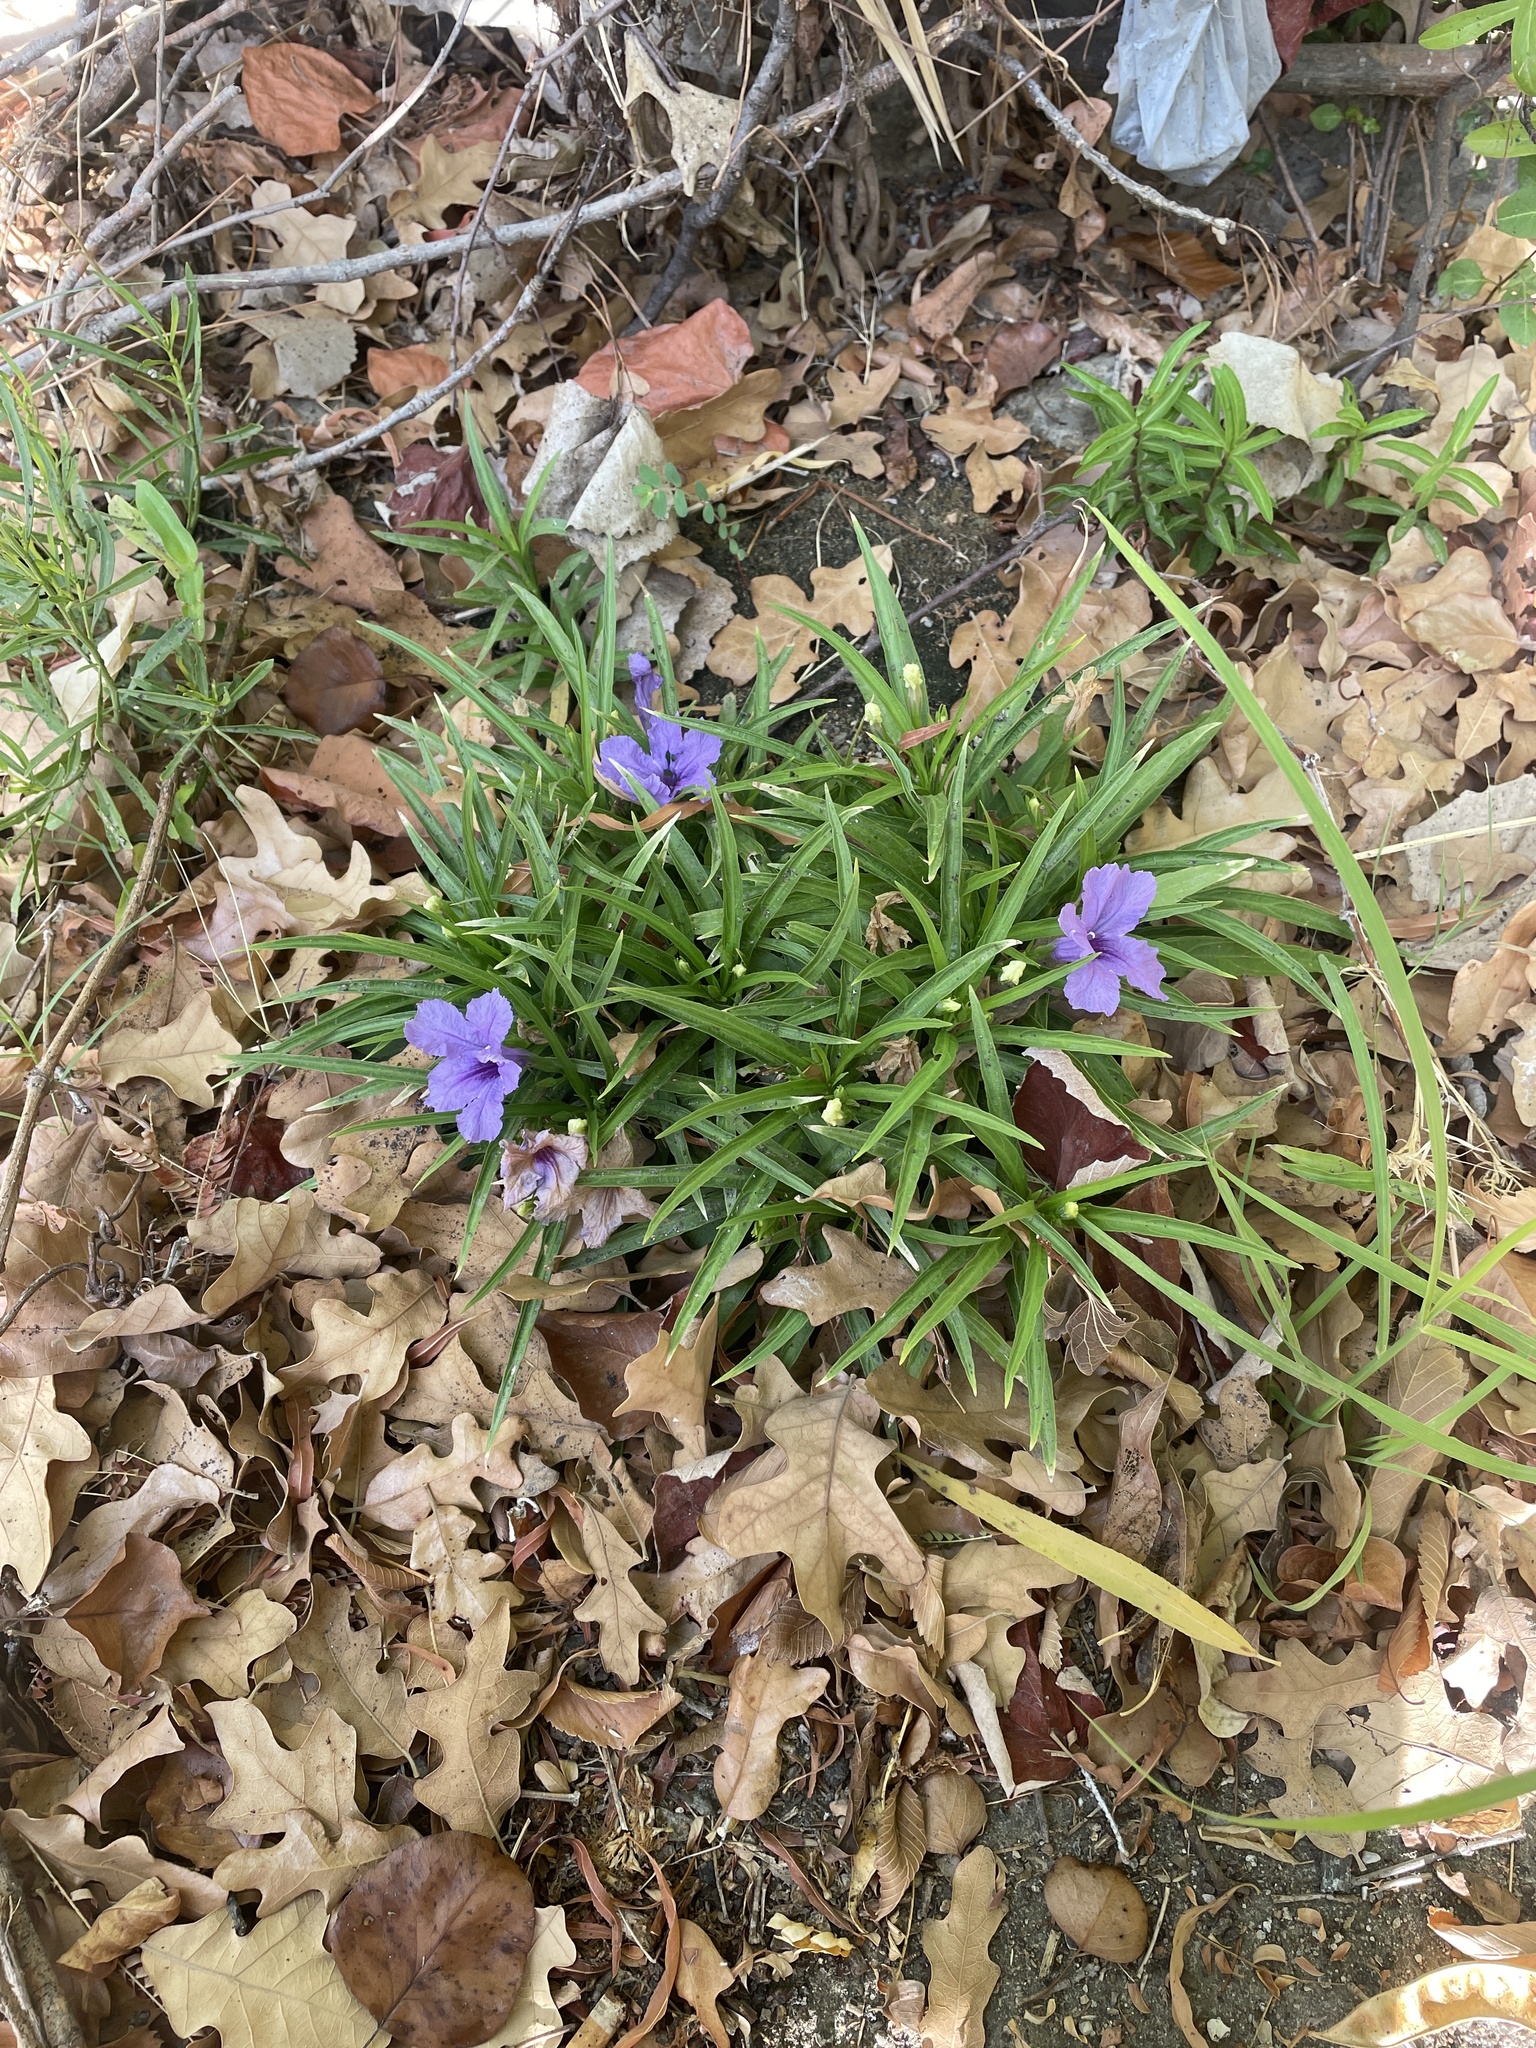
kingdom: Plantae
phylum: Tracheophyta
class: Magnoliopsida
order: Lamiales
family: Acanthaceae
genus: Ruellia
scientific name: Ruellia simplex
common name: Softseed wild petunia
